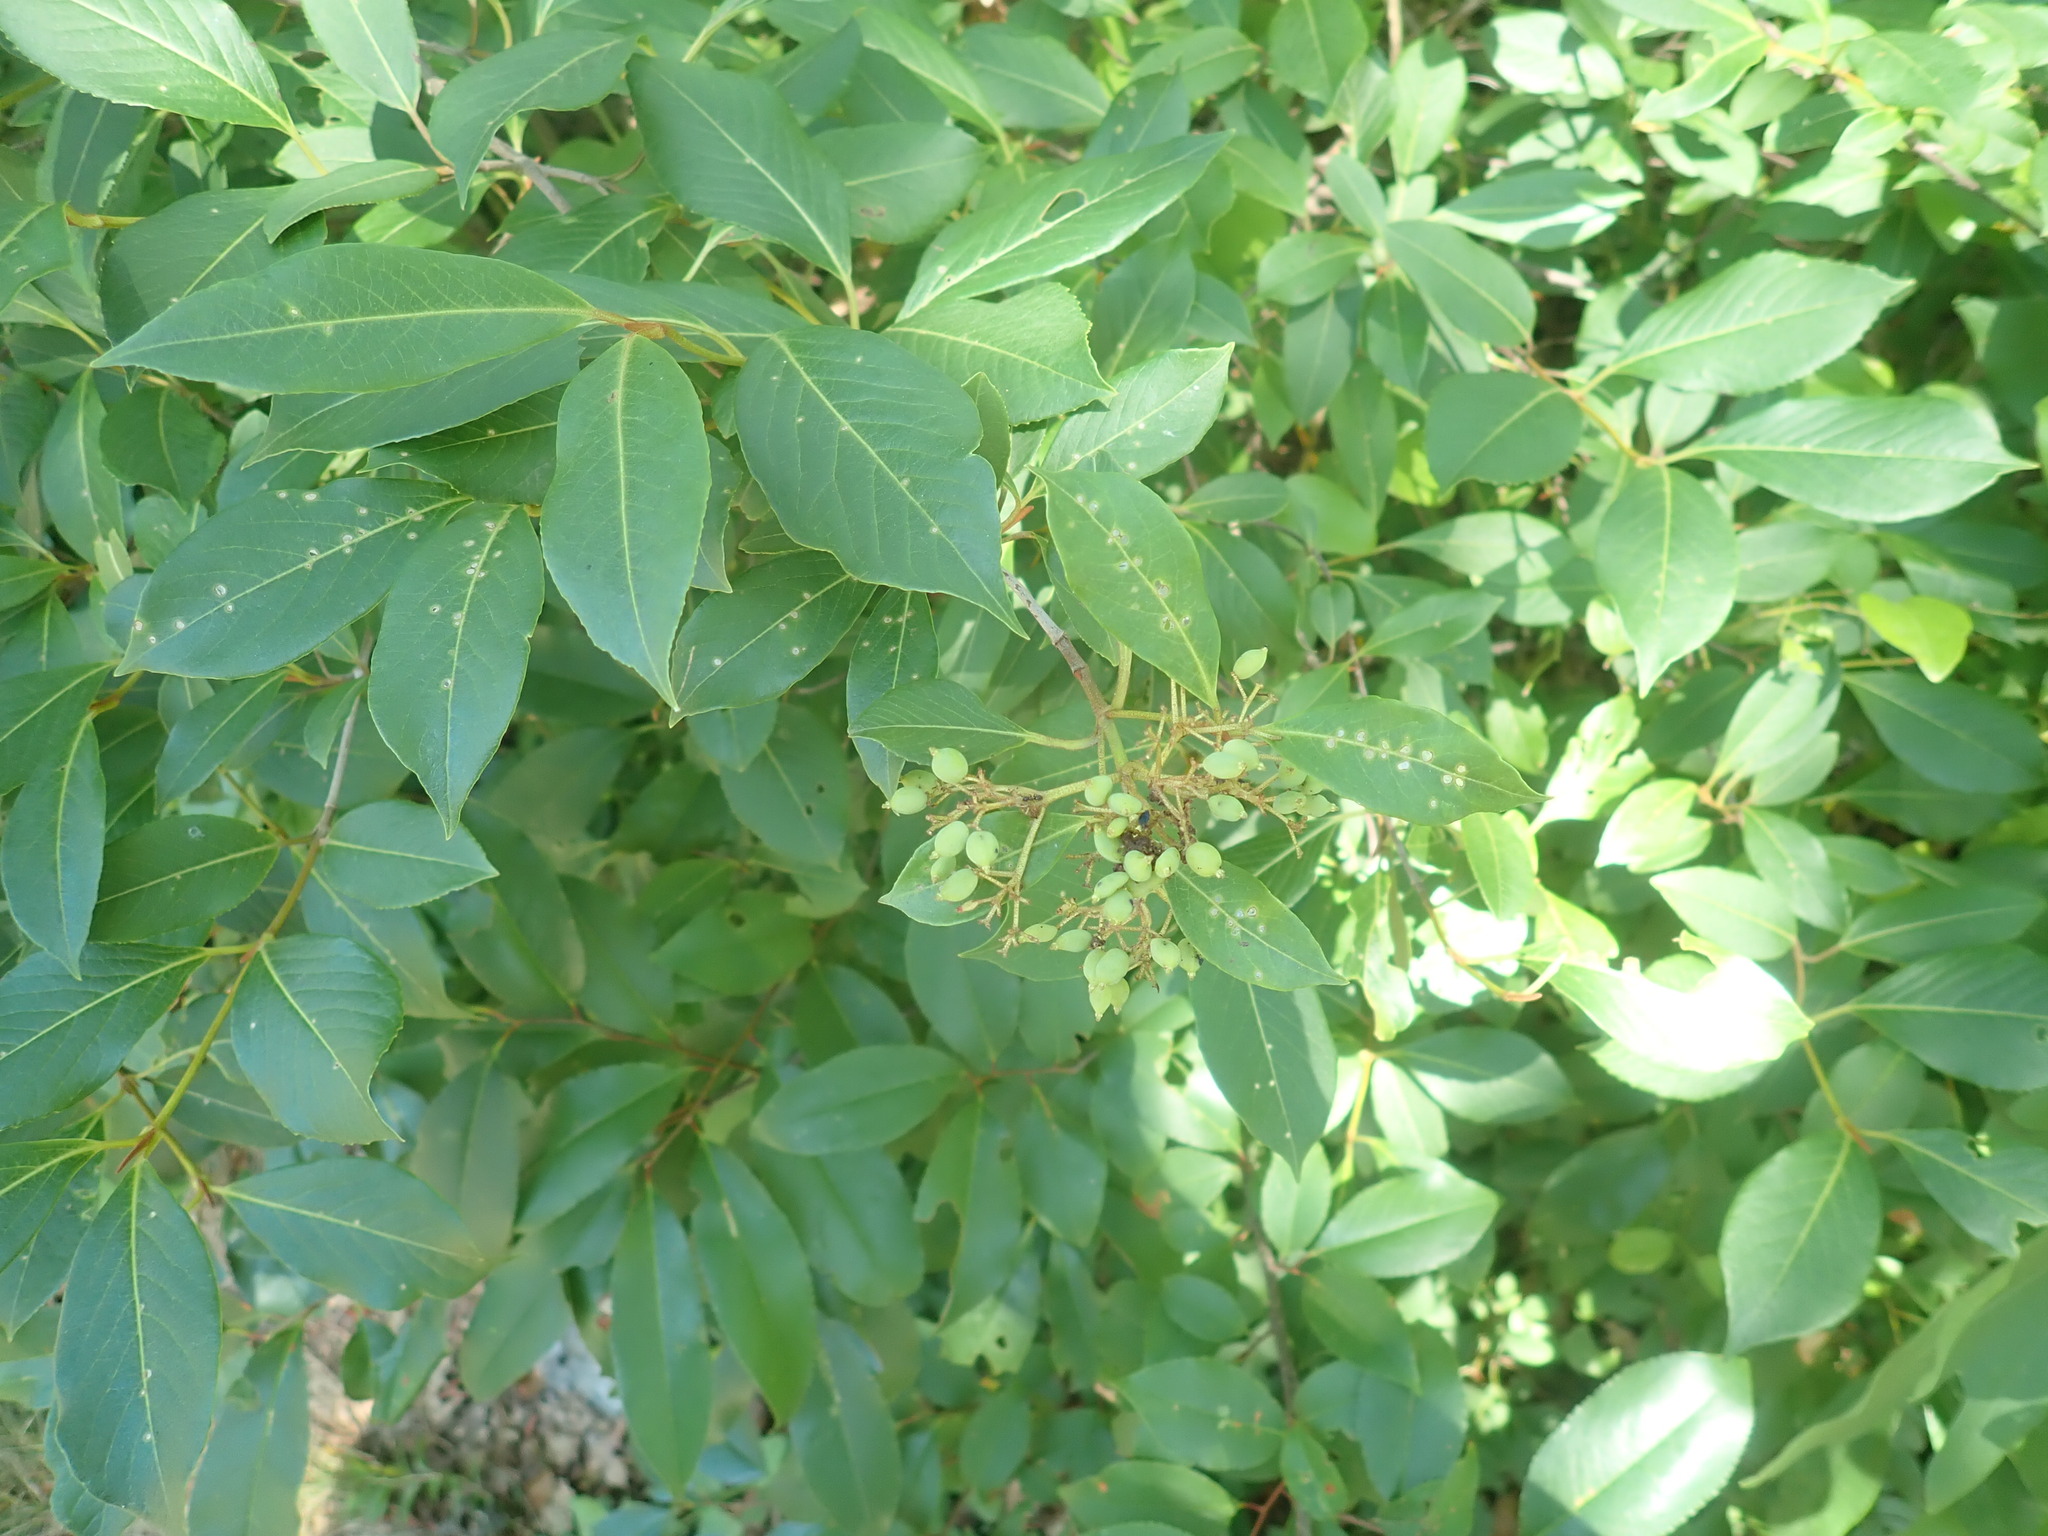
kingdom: Plantae
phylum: Tracheophyta
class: Magnoliopsida
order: Dipsacales
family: Viburnaceae
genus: Viburnum
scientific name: Viburnum cassinoides
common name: Swamp haw
